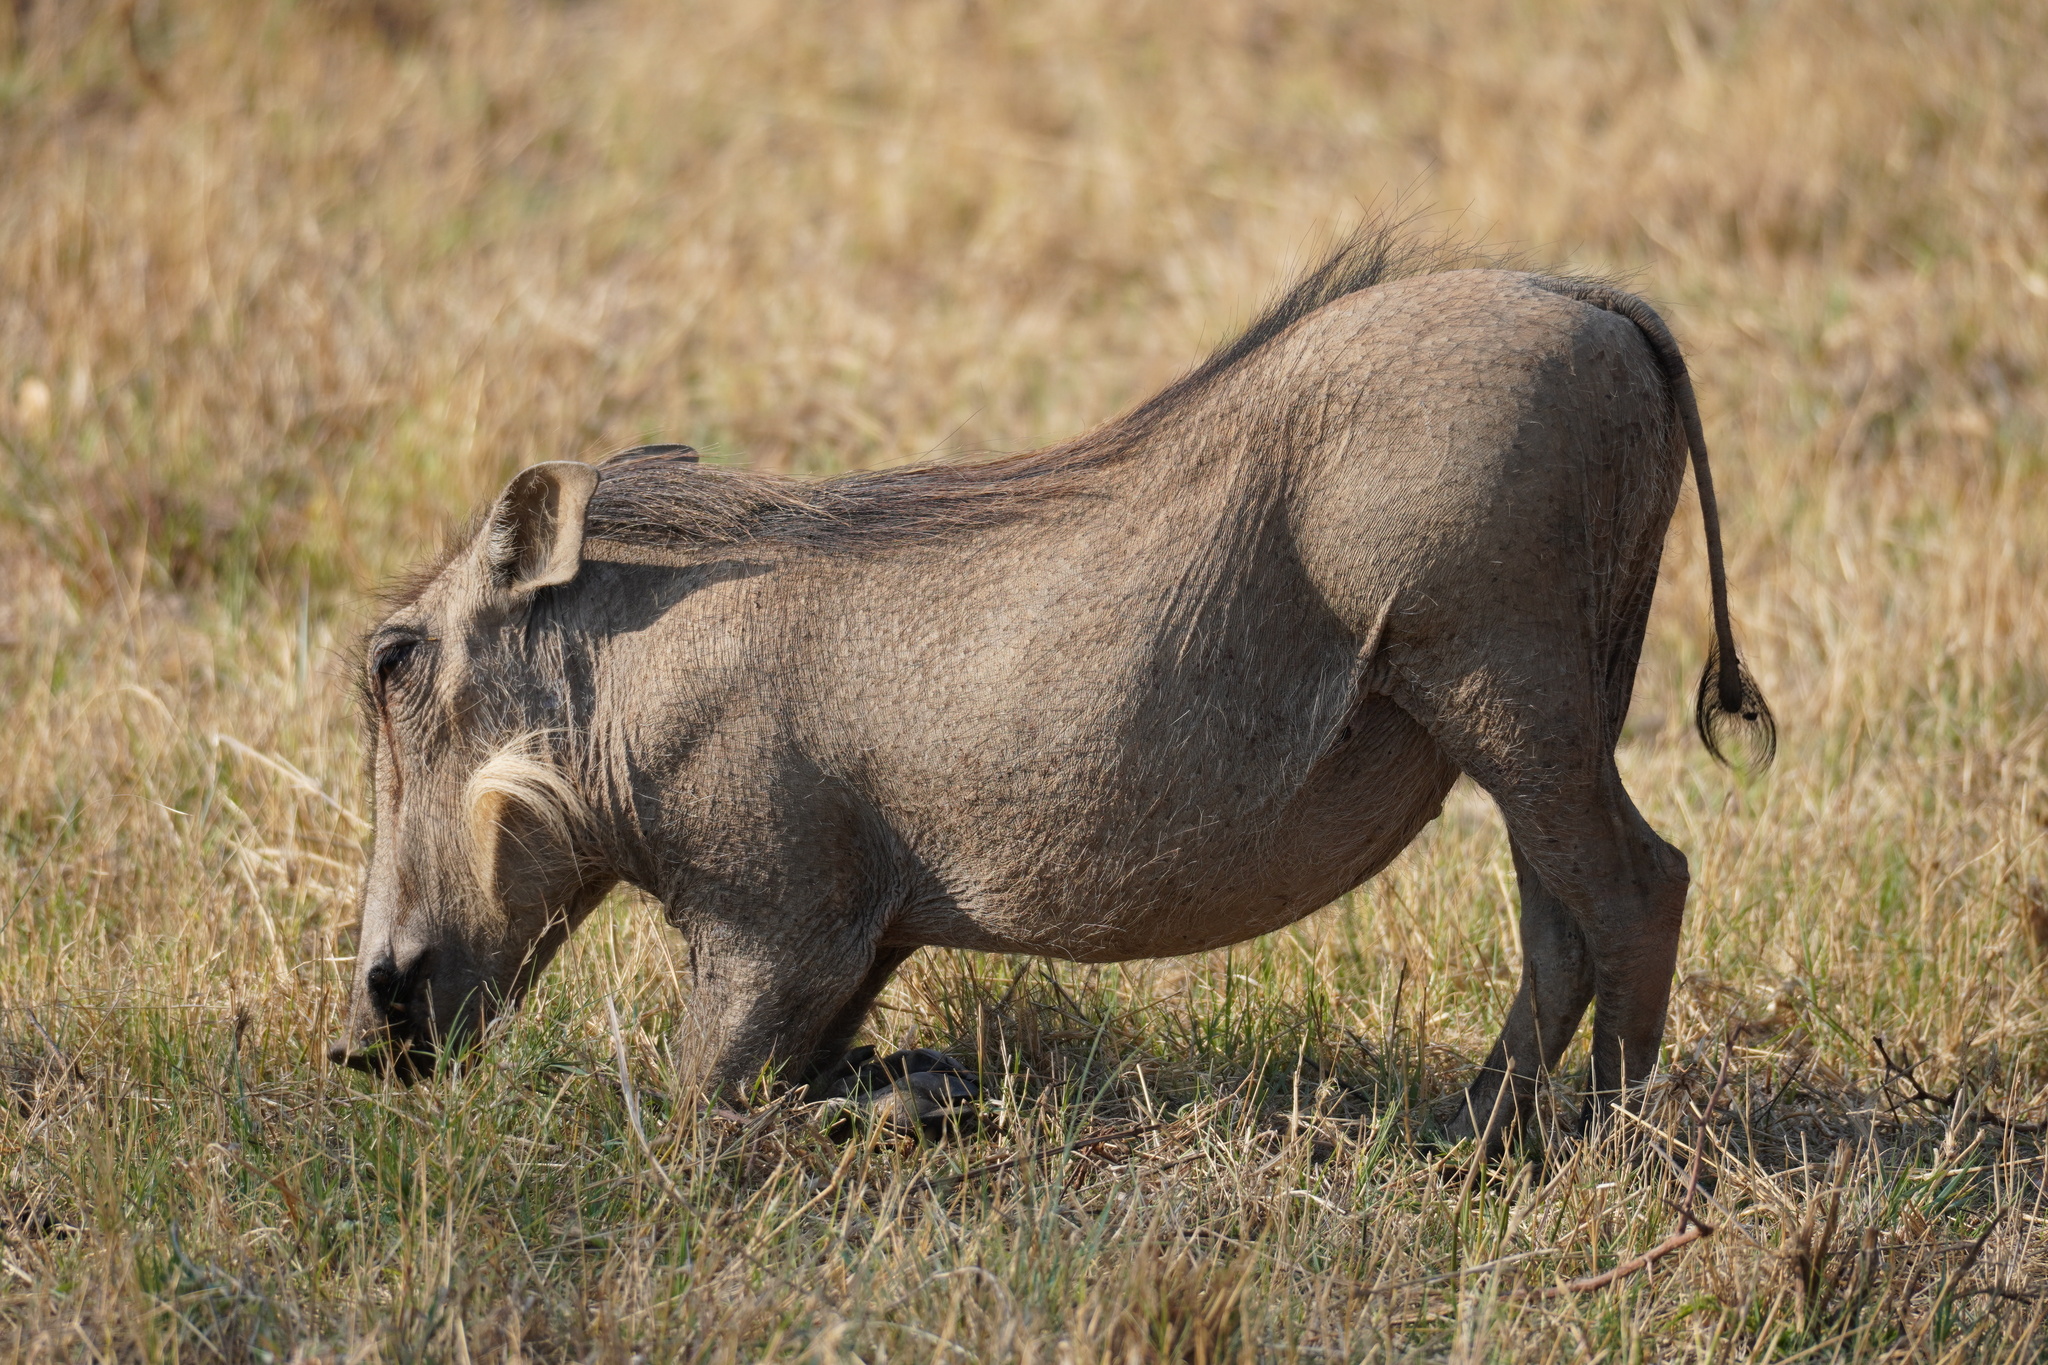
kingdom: Animalia
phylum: Chordata
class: Mammalia
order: Artiodactyla
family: Suidae
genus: Phacochoerus
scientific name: Phacochoerus africanus
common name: Common warthog
